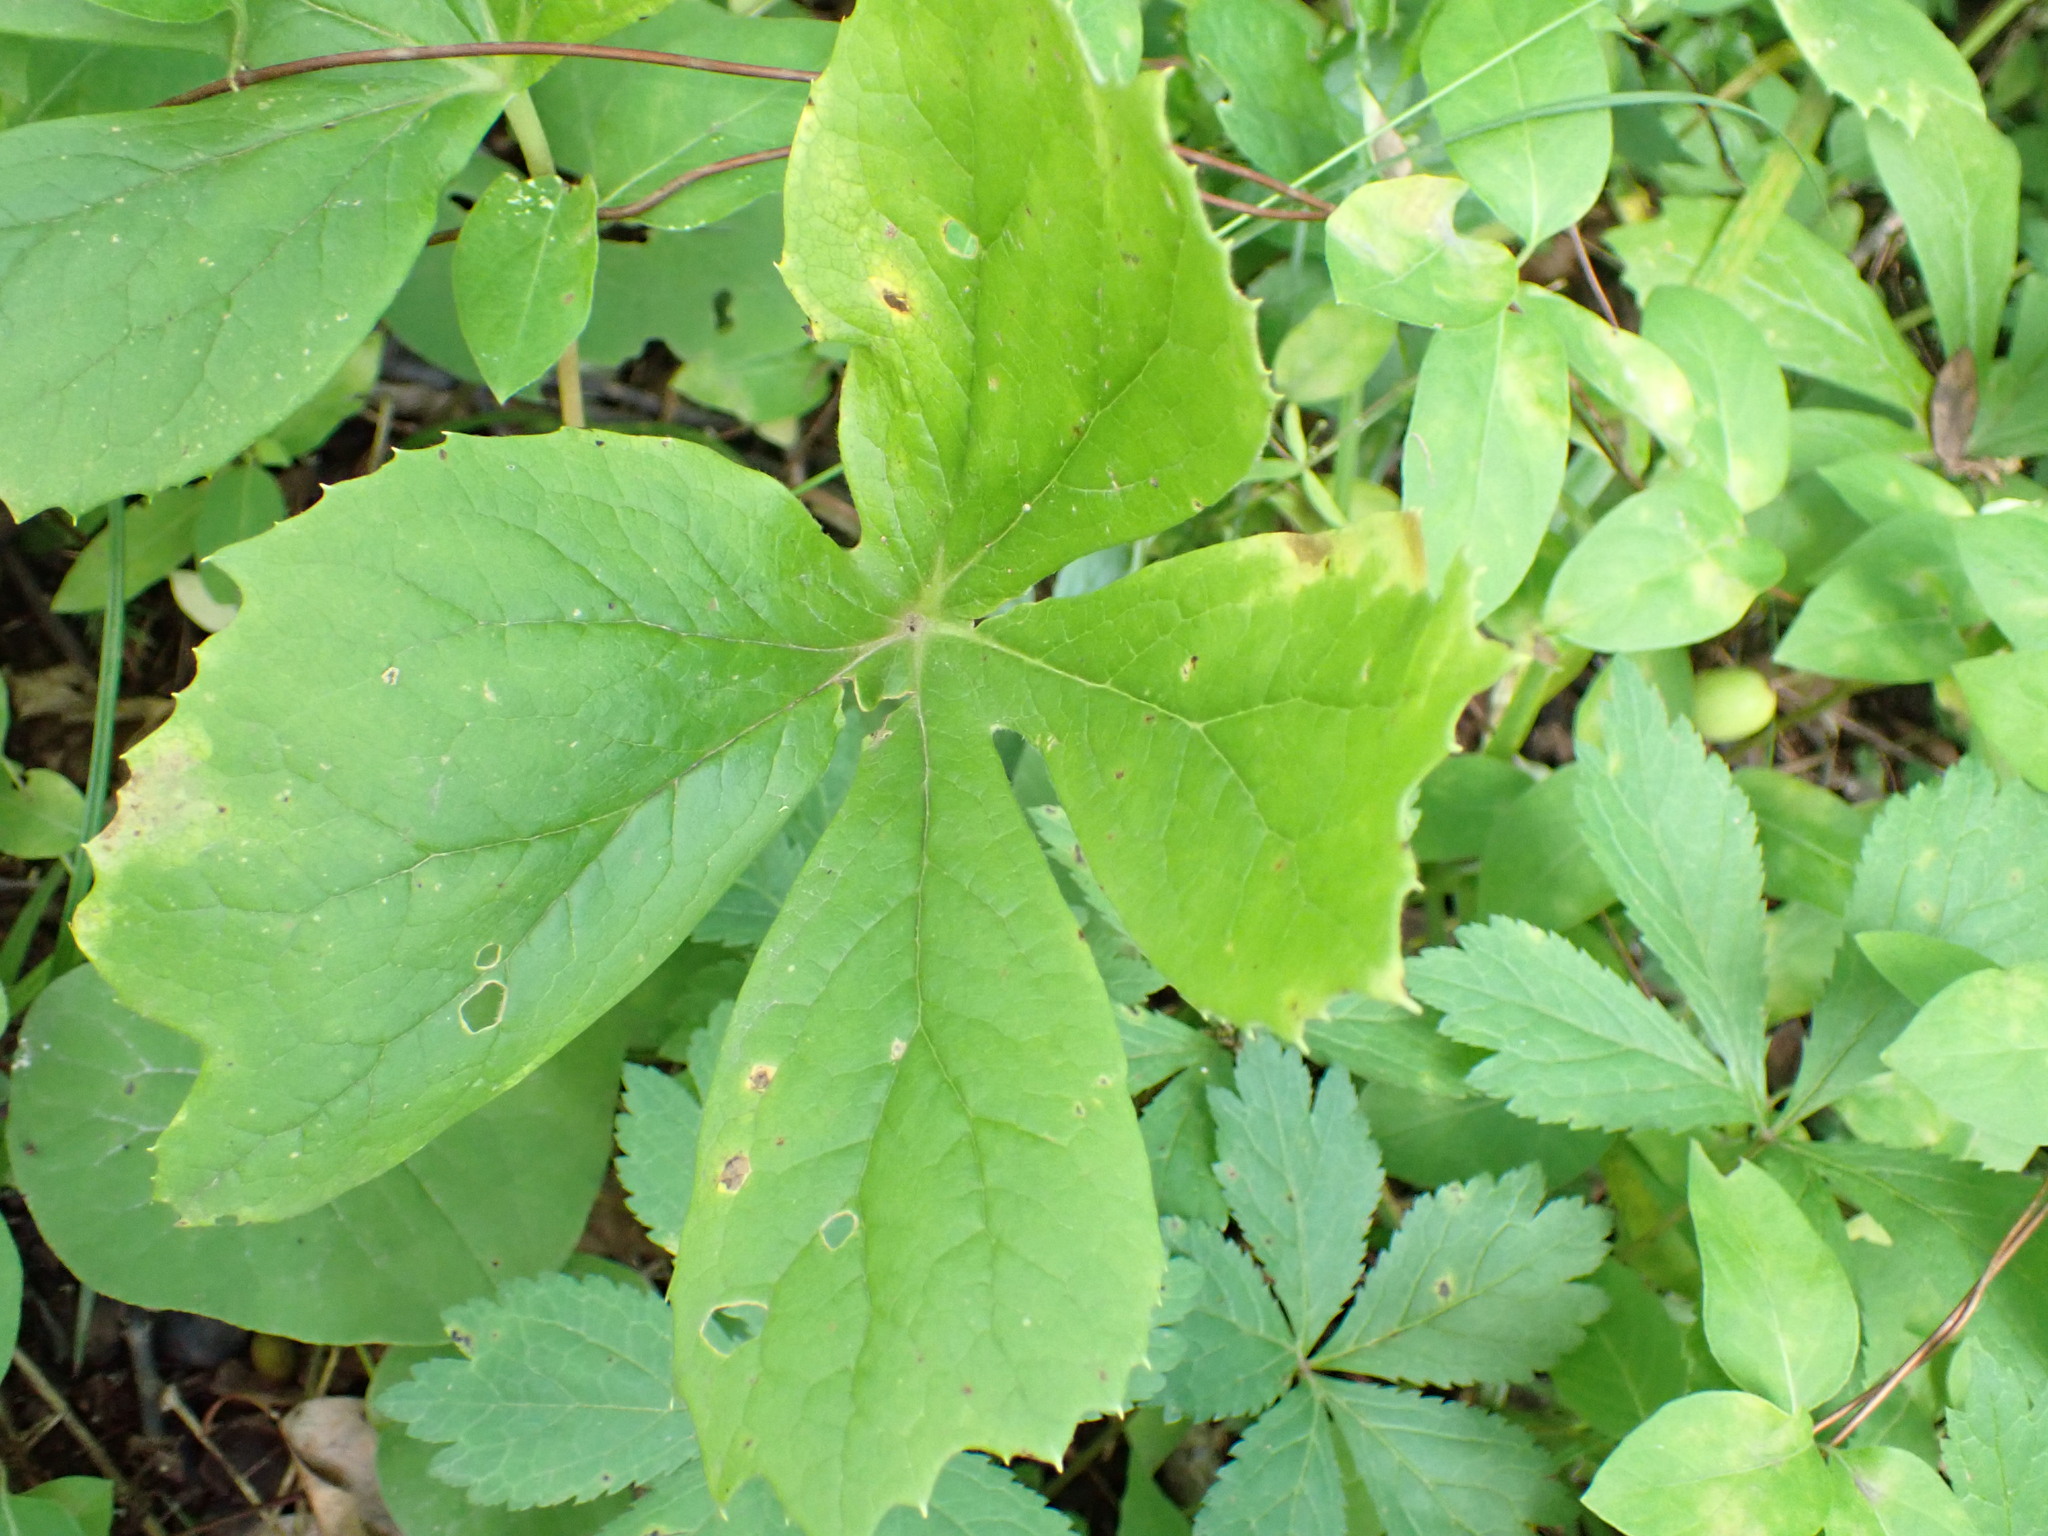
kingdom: Plantae
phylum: Tracheophyta
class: Magnoliopsida
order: Ranunculales
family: Berberidaceae
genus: Podophyllum
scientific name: Podophyllum peltatum
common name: Wild mandrake
